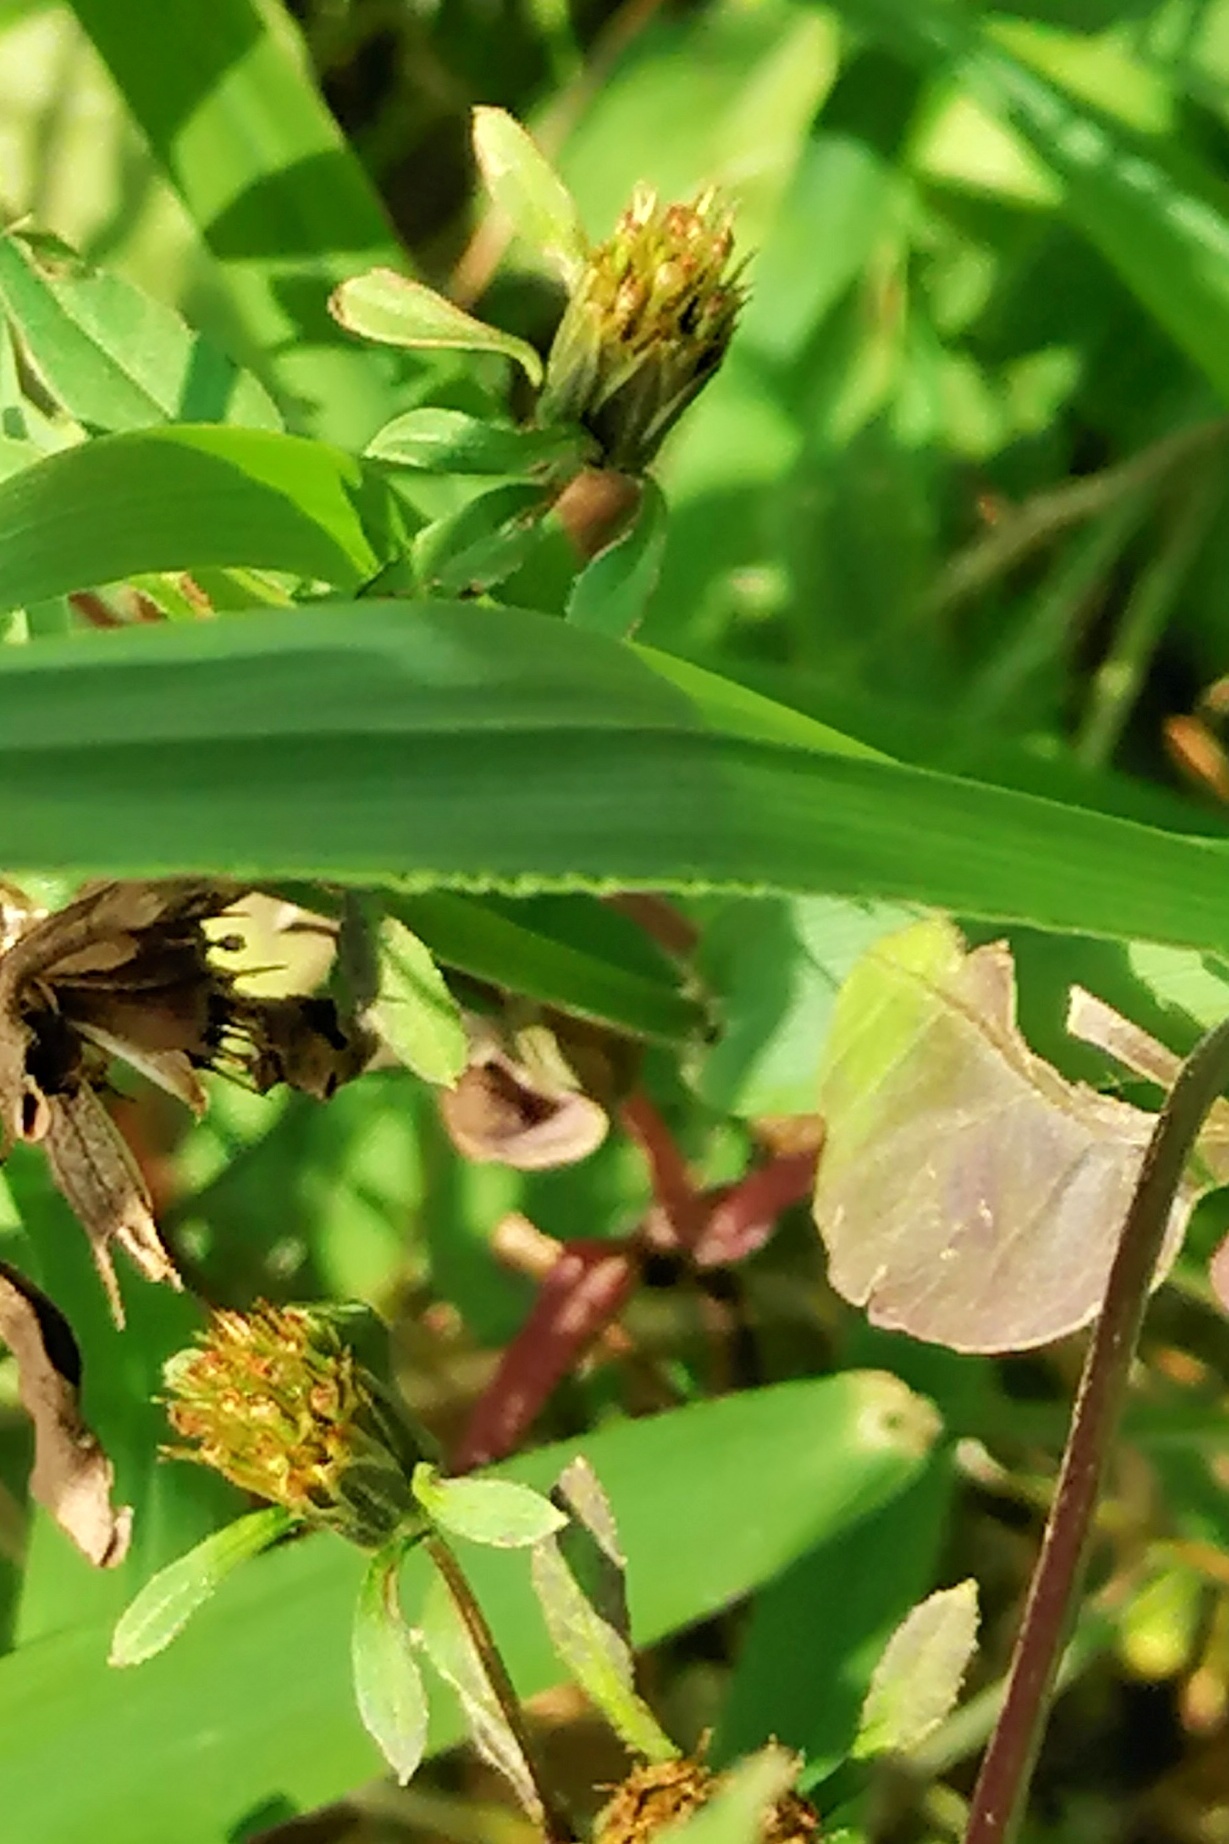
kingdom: Plantae
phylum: Tracheophyta
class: Magnoliopsida
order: Asterales
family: Asteraceae
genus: Bidens
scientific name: Bidens frondosa
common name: Beggarticks
